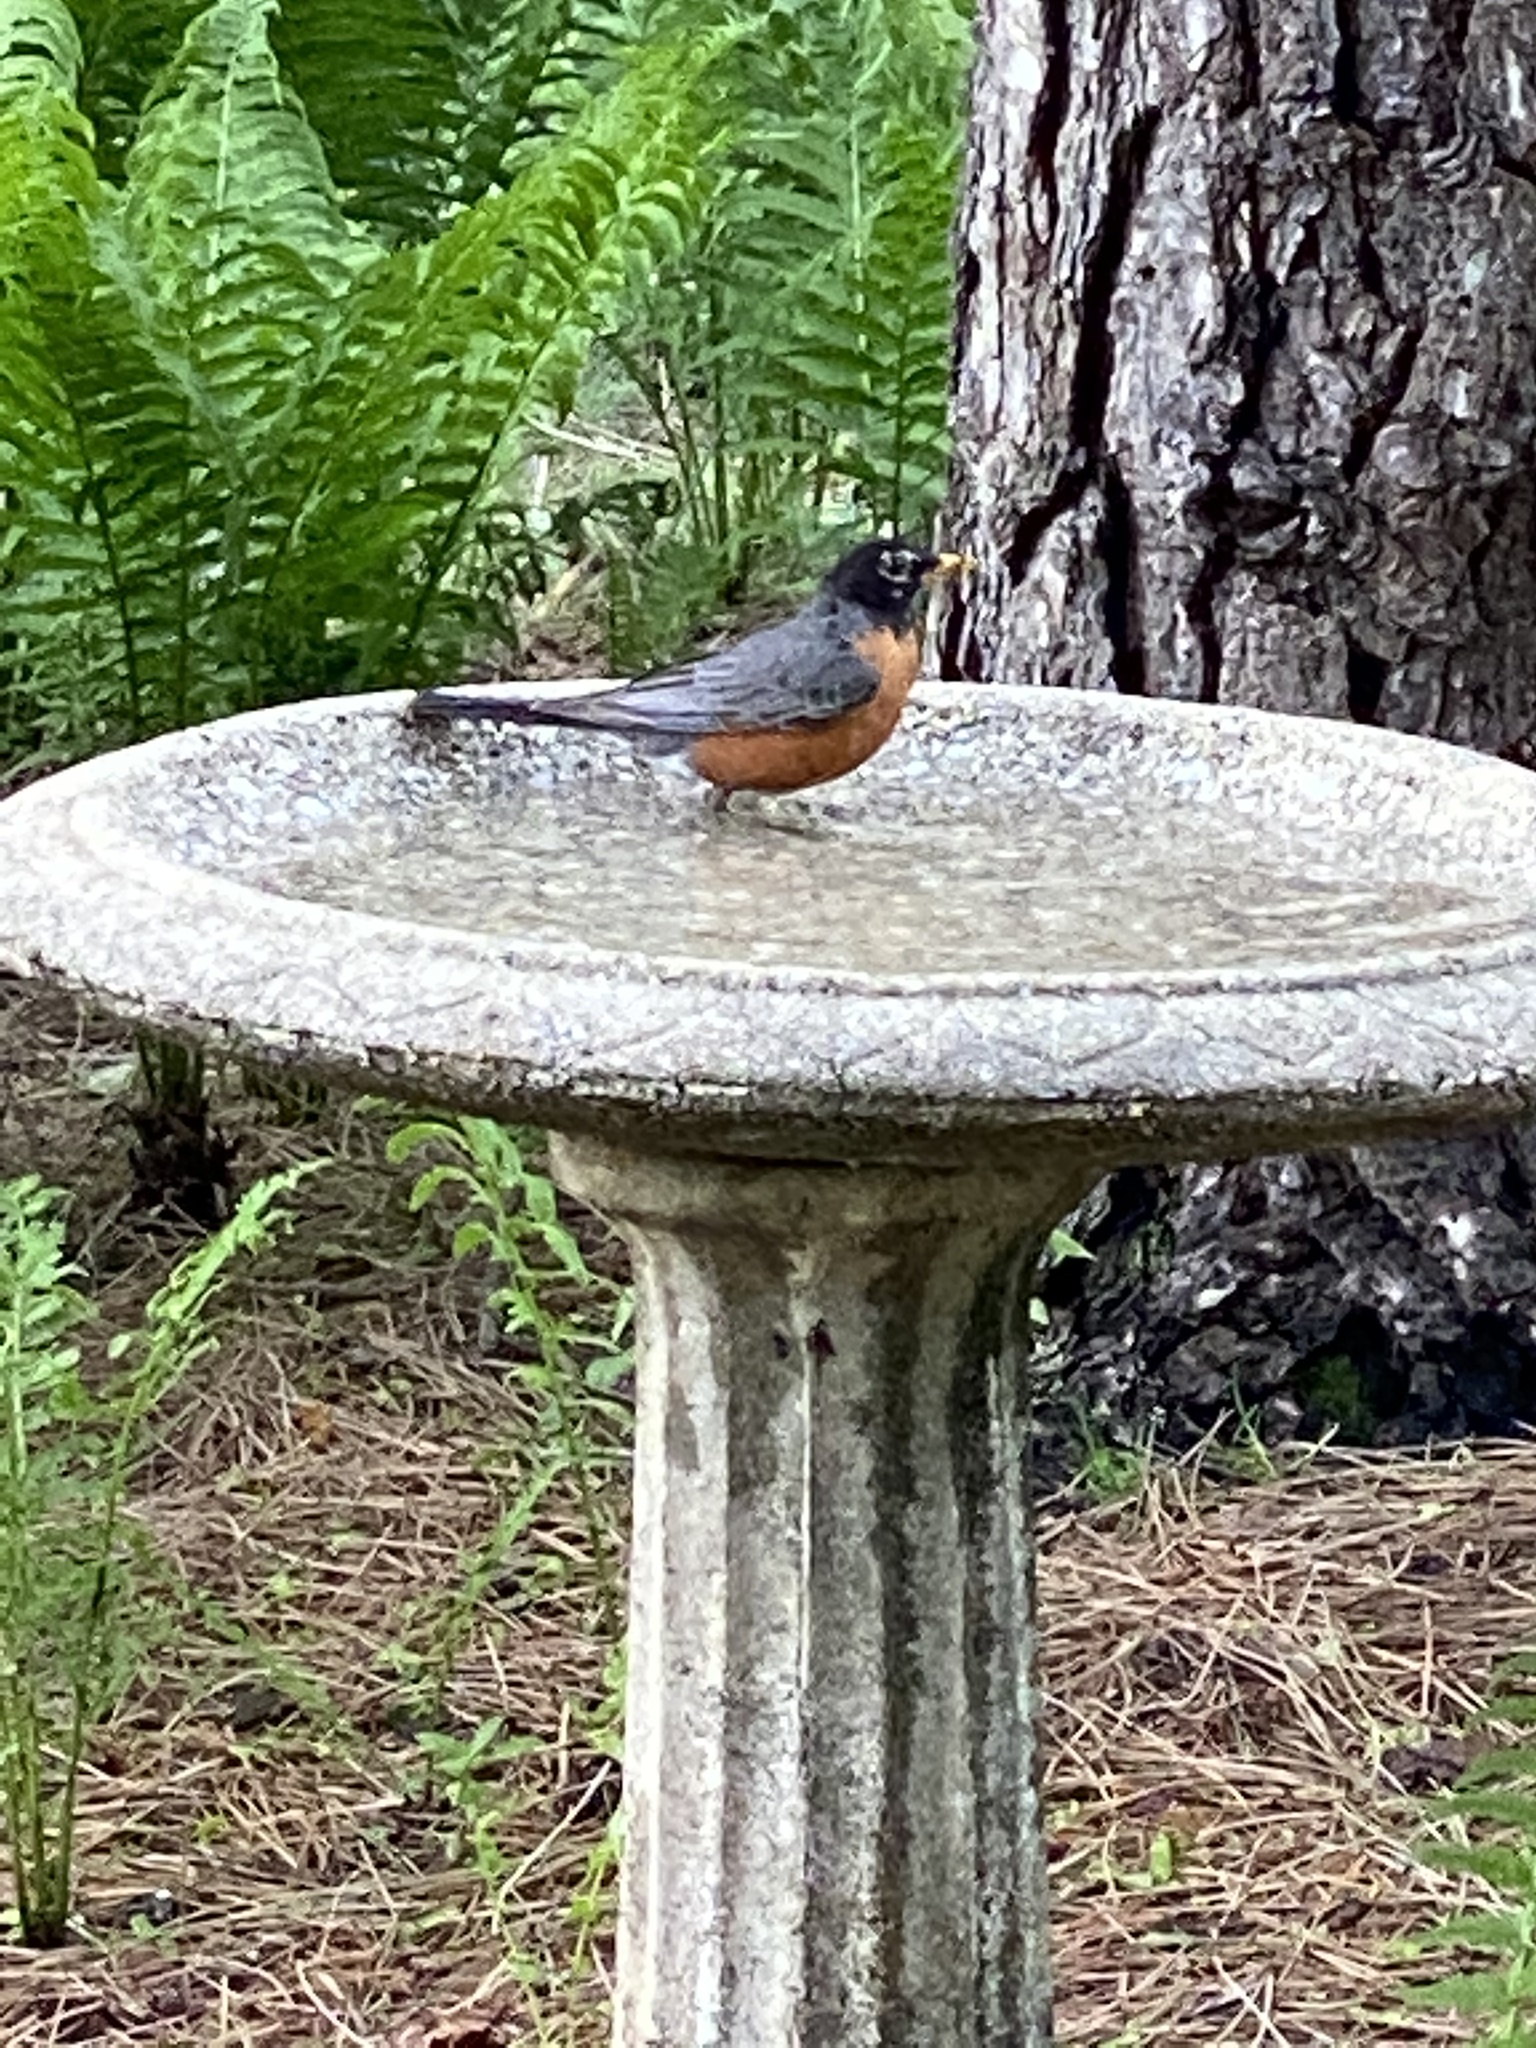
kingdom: Animalia
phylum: Chordata
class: Aves
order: Passeriformes
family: Turdidae
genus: Turdus
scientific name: Turdus migratorius
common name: American robin
